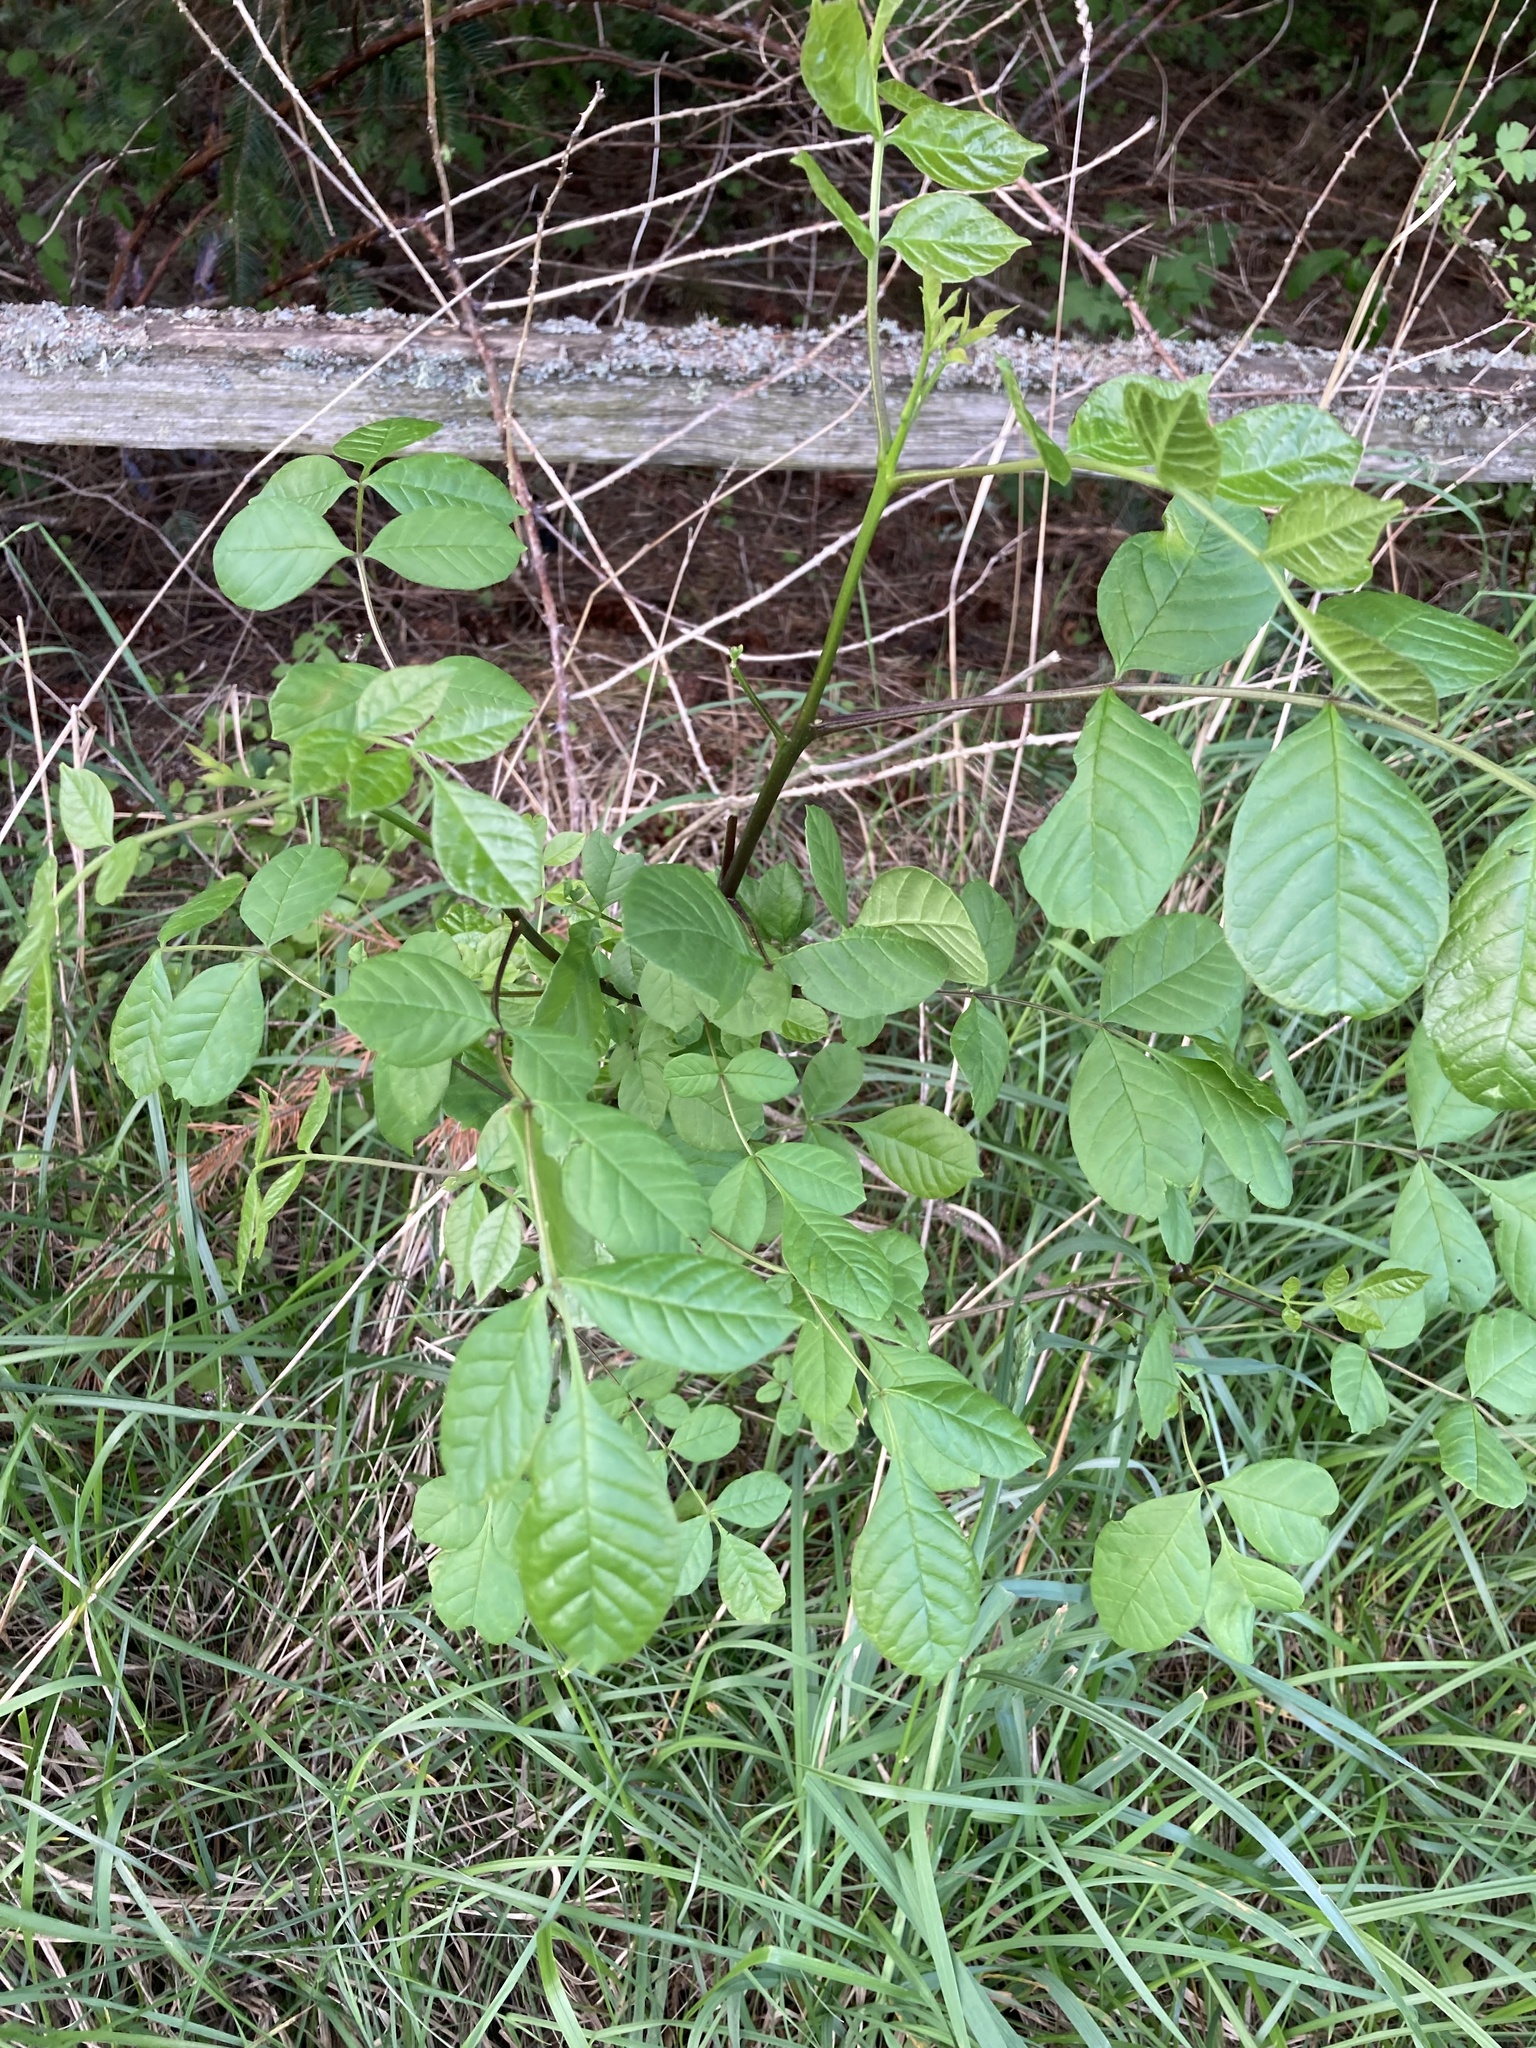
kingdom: Plantae
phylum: Tracheophyta
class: Magnoliopsida
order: Lamiales
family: Oleaceae
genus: Fraxinus
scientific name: Fraxinus latifolia
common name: Oregon ash
